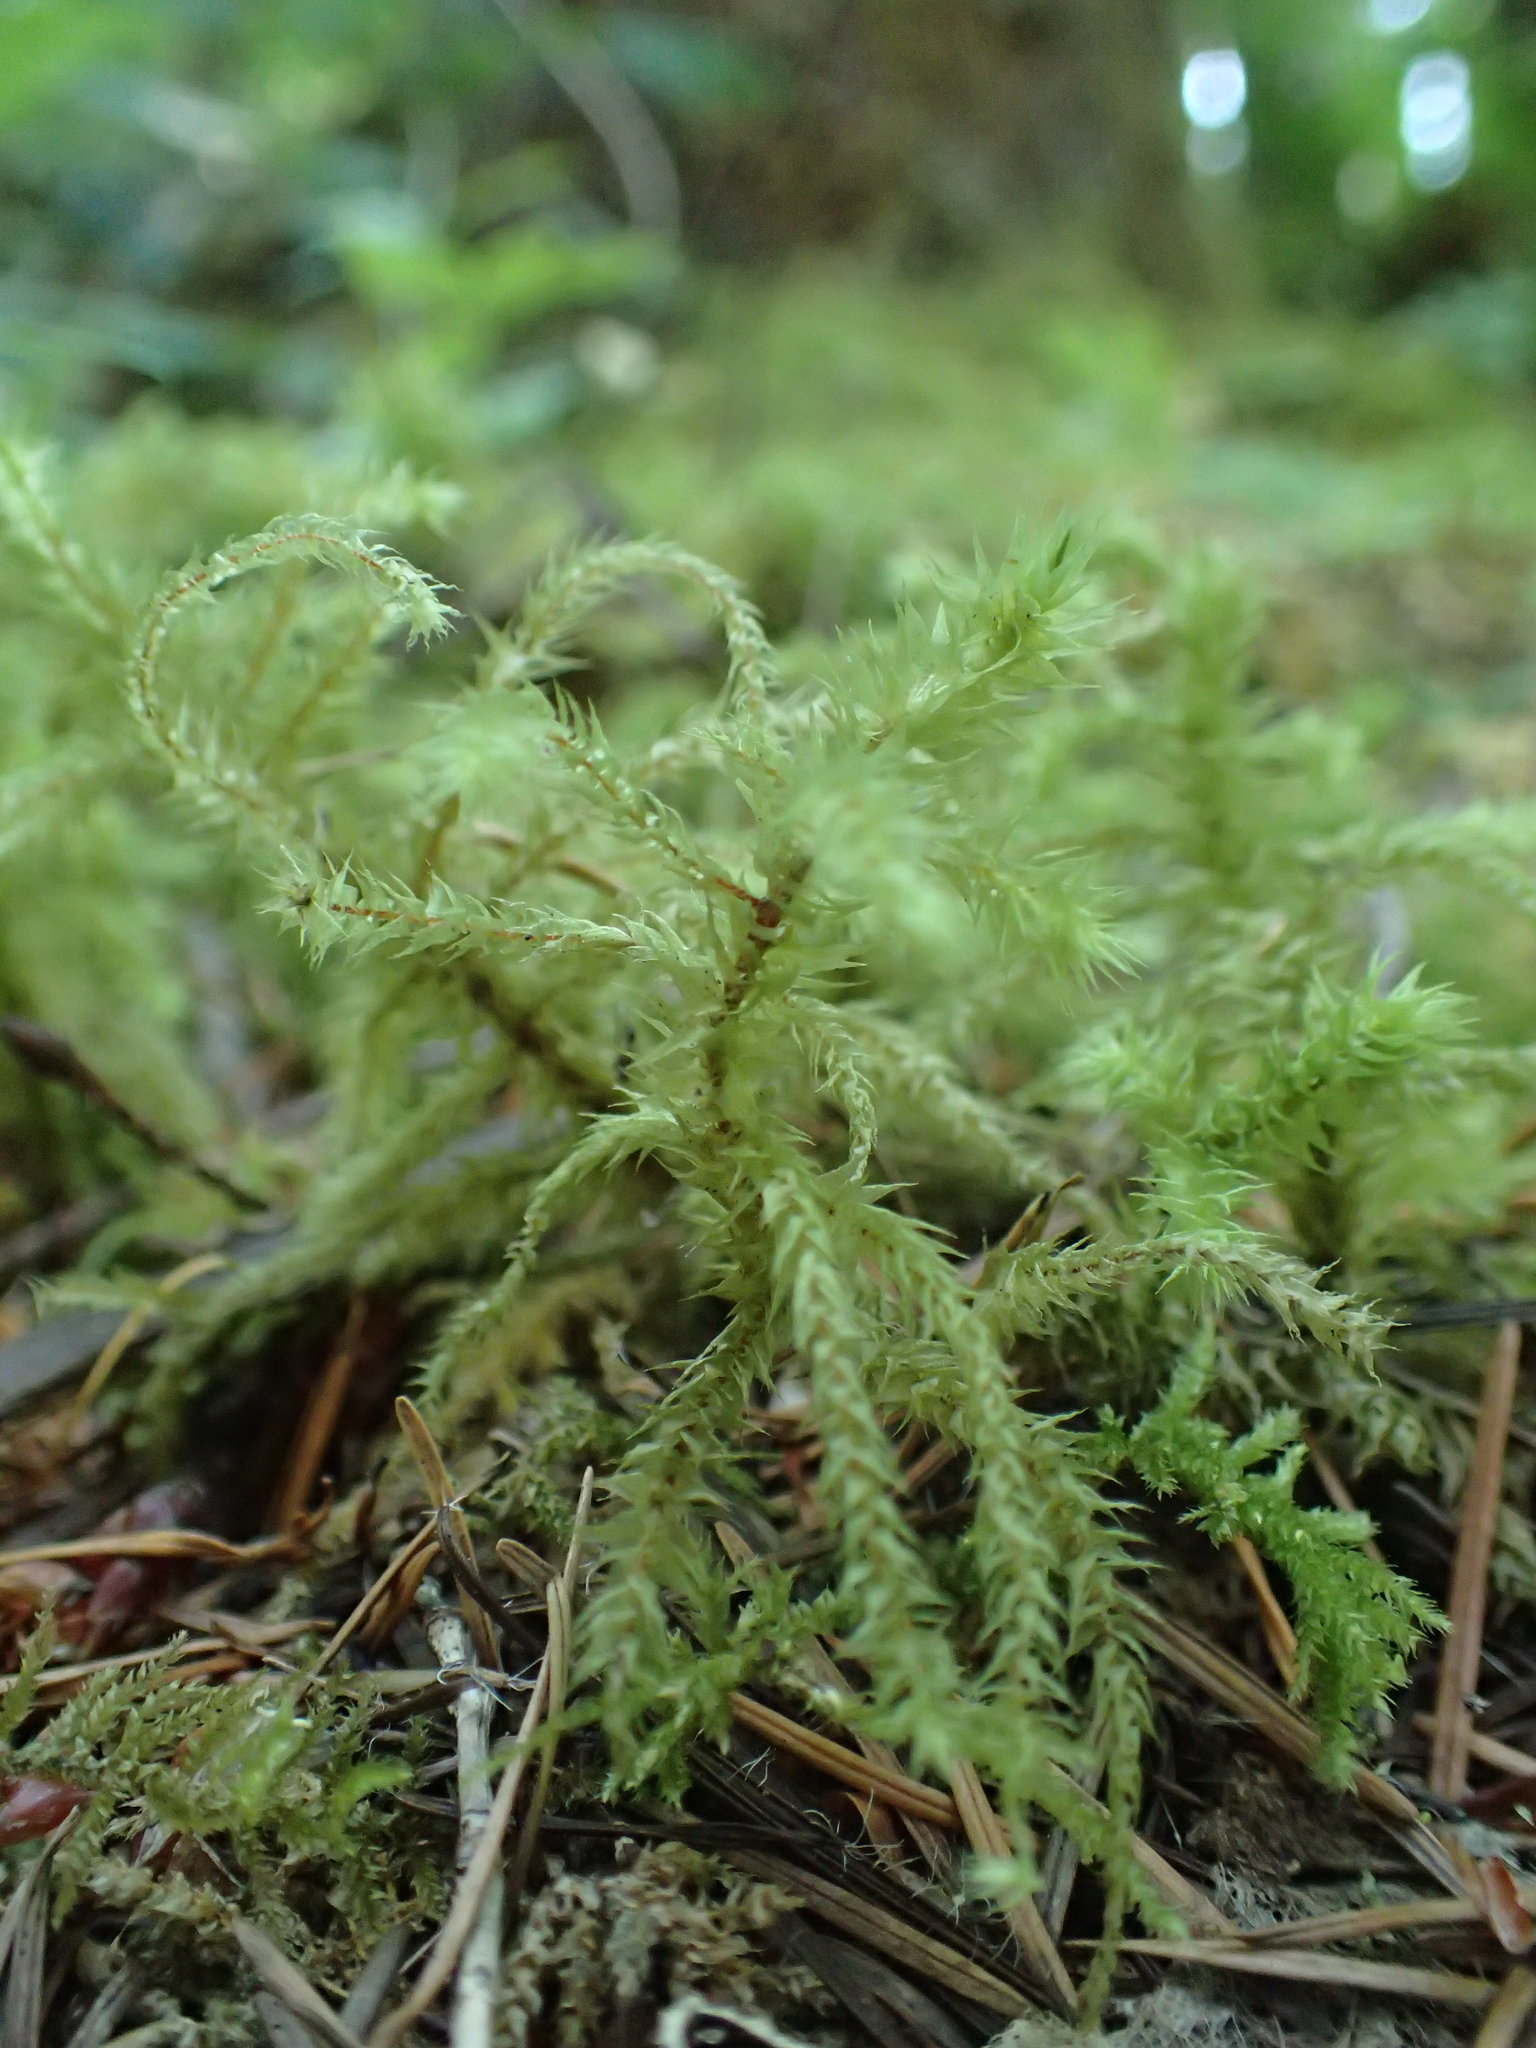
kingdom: Plantae
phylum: Bryophyta
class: Bryopsida
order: Hypnales
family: Hylocomiaceae
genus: Hylocomiadelphus
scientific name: Hylocomiadelphus triquetrus
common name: Rough goose neck moss
